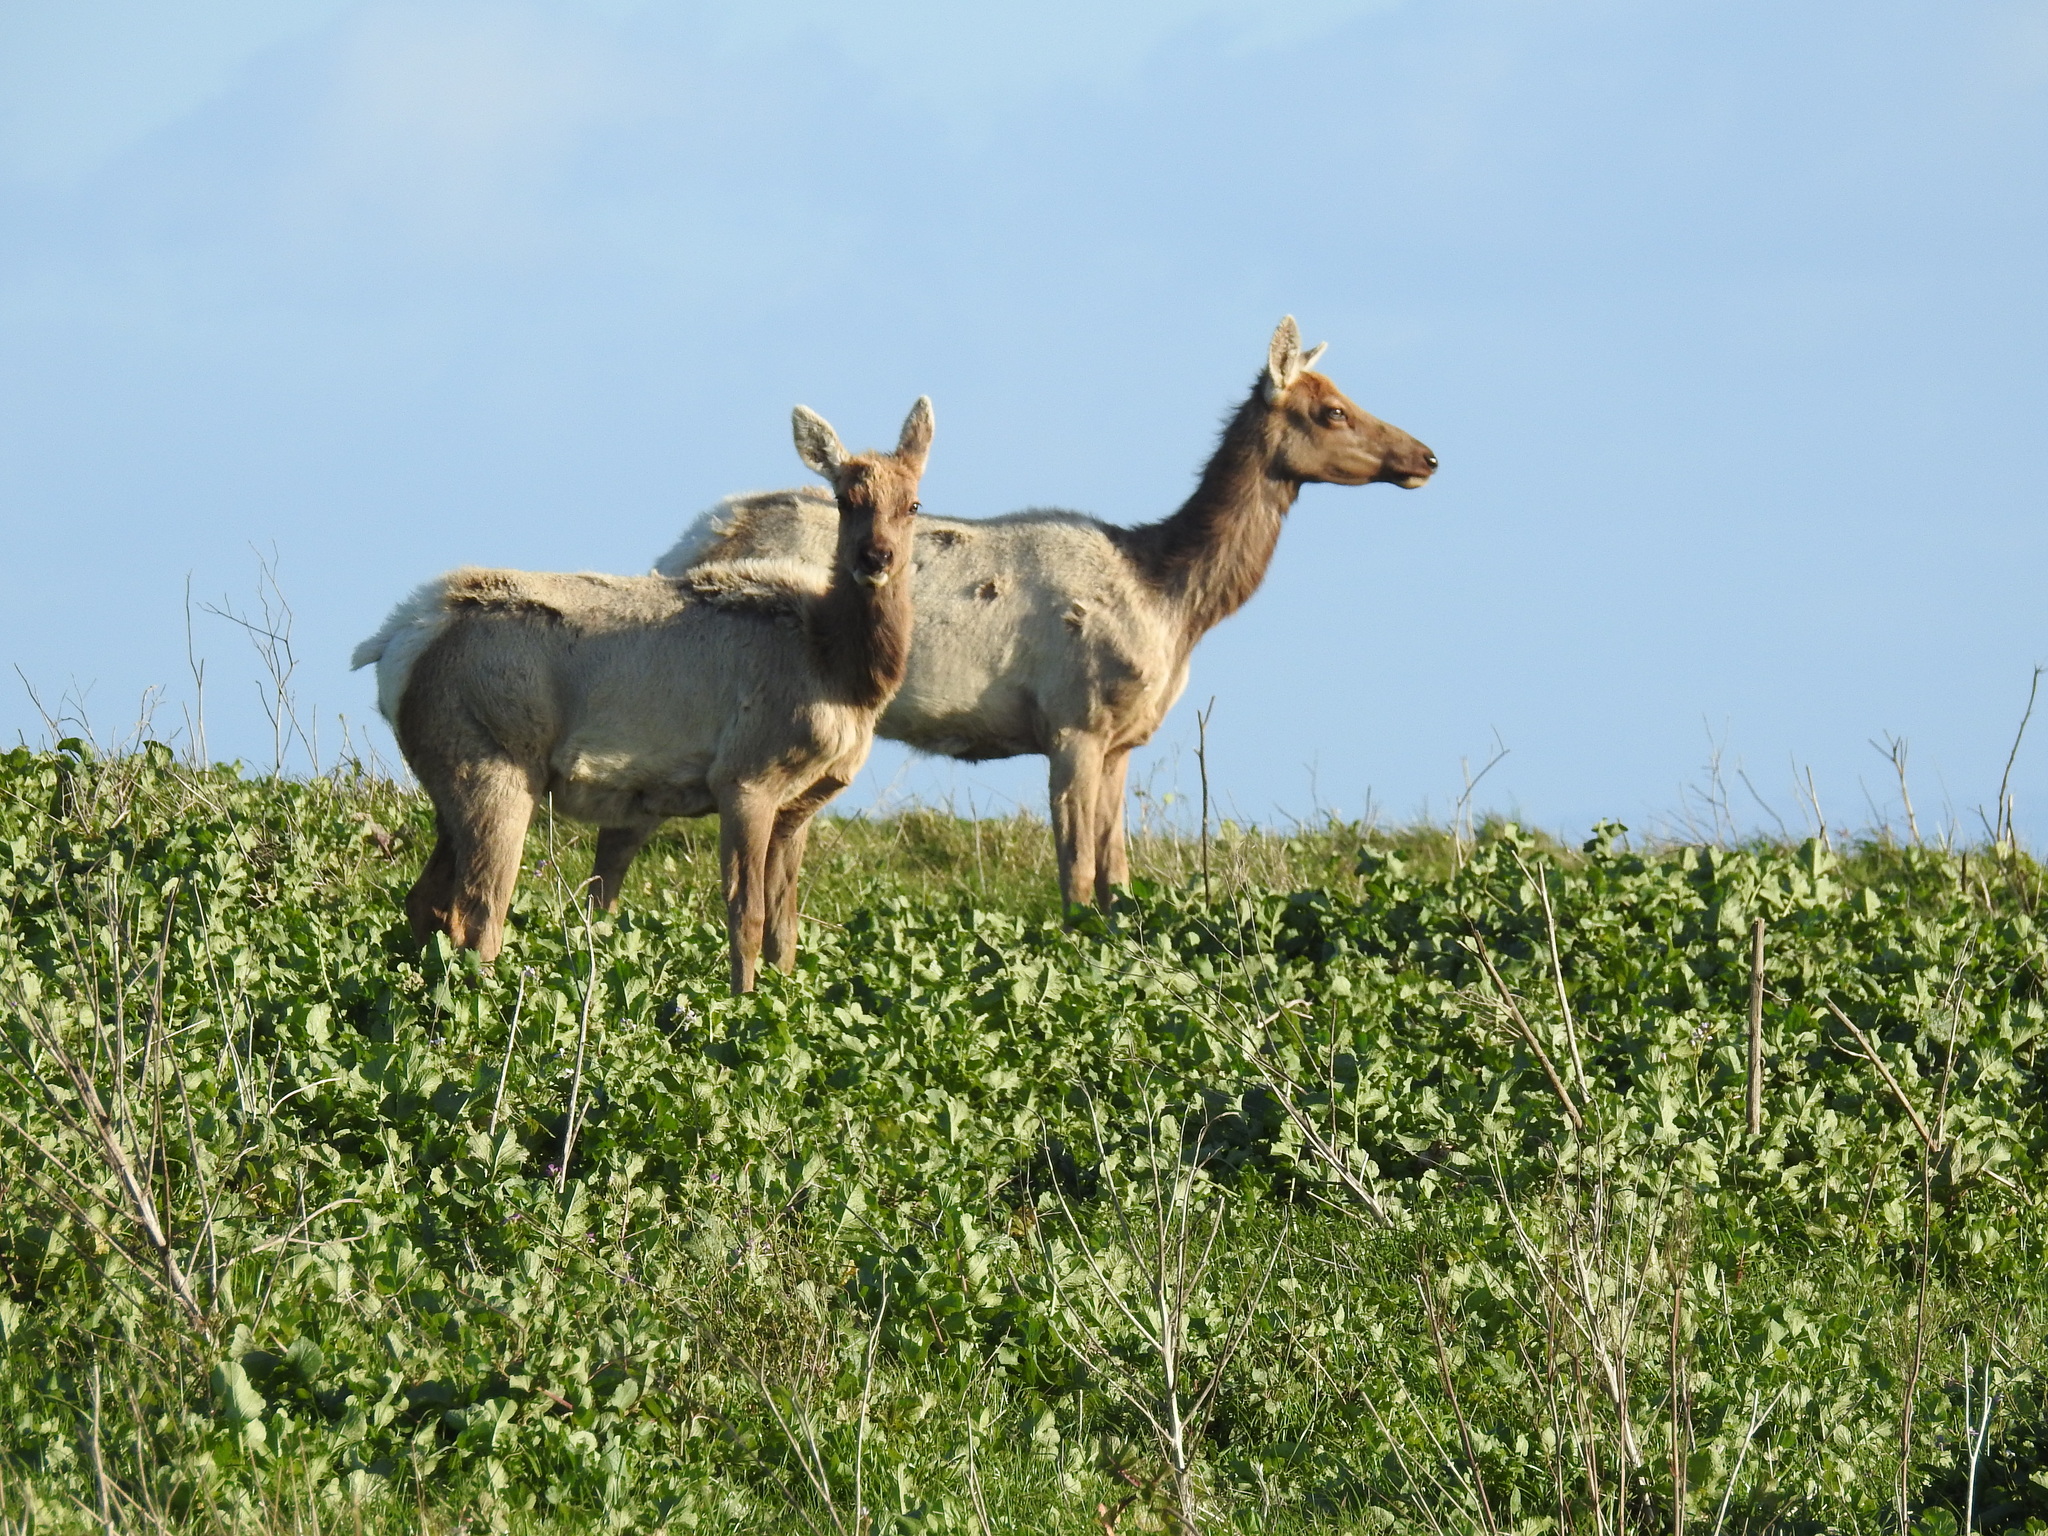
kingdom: Animalia
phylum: Chordata
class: Mammalia
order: Artiodactyla
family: Cervidae
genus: Cervus
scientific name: Cervus elaphus
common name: Red deer
